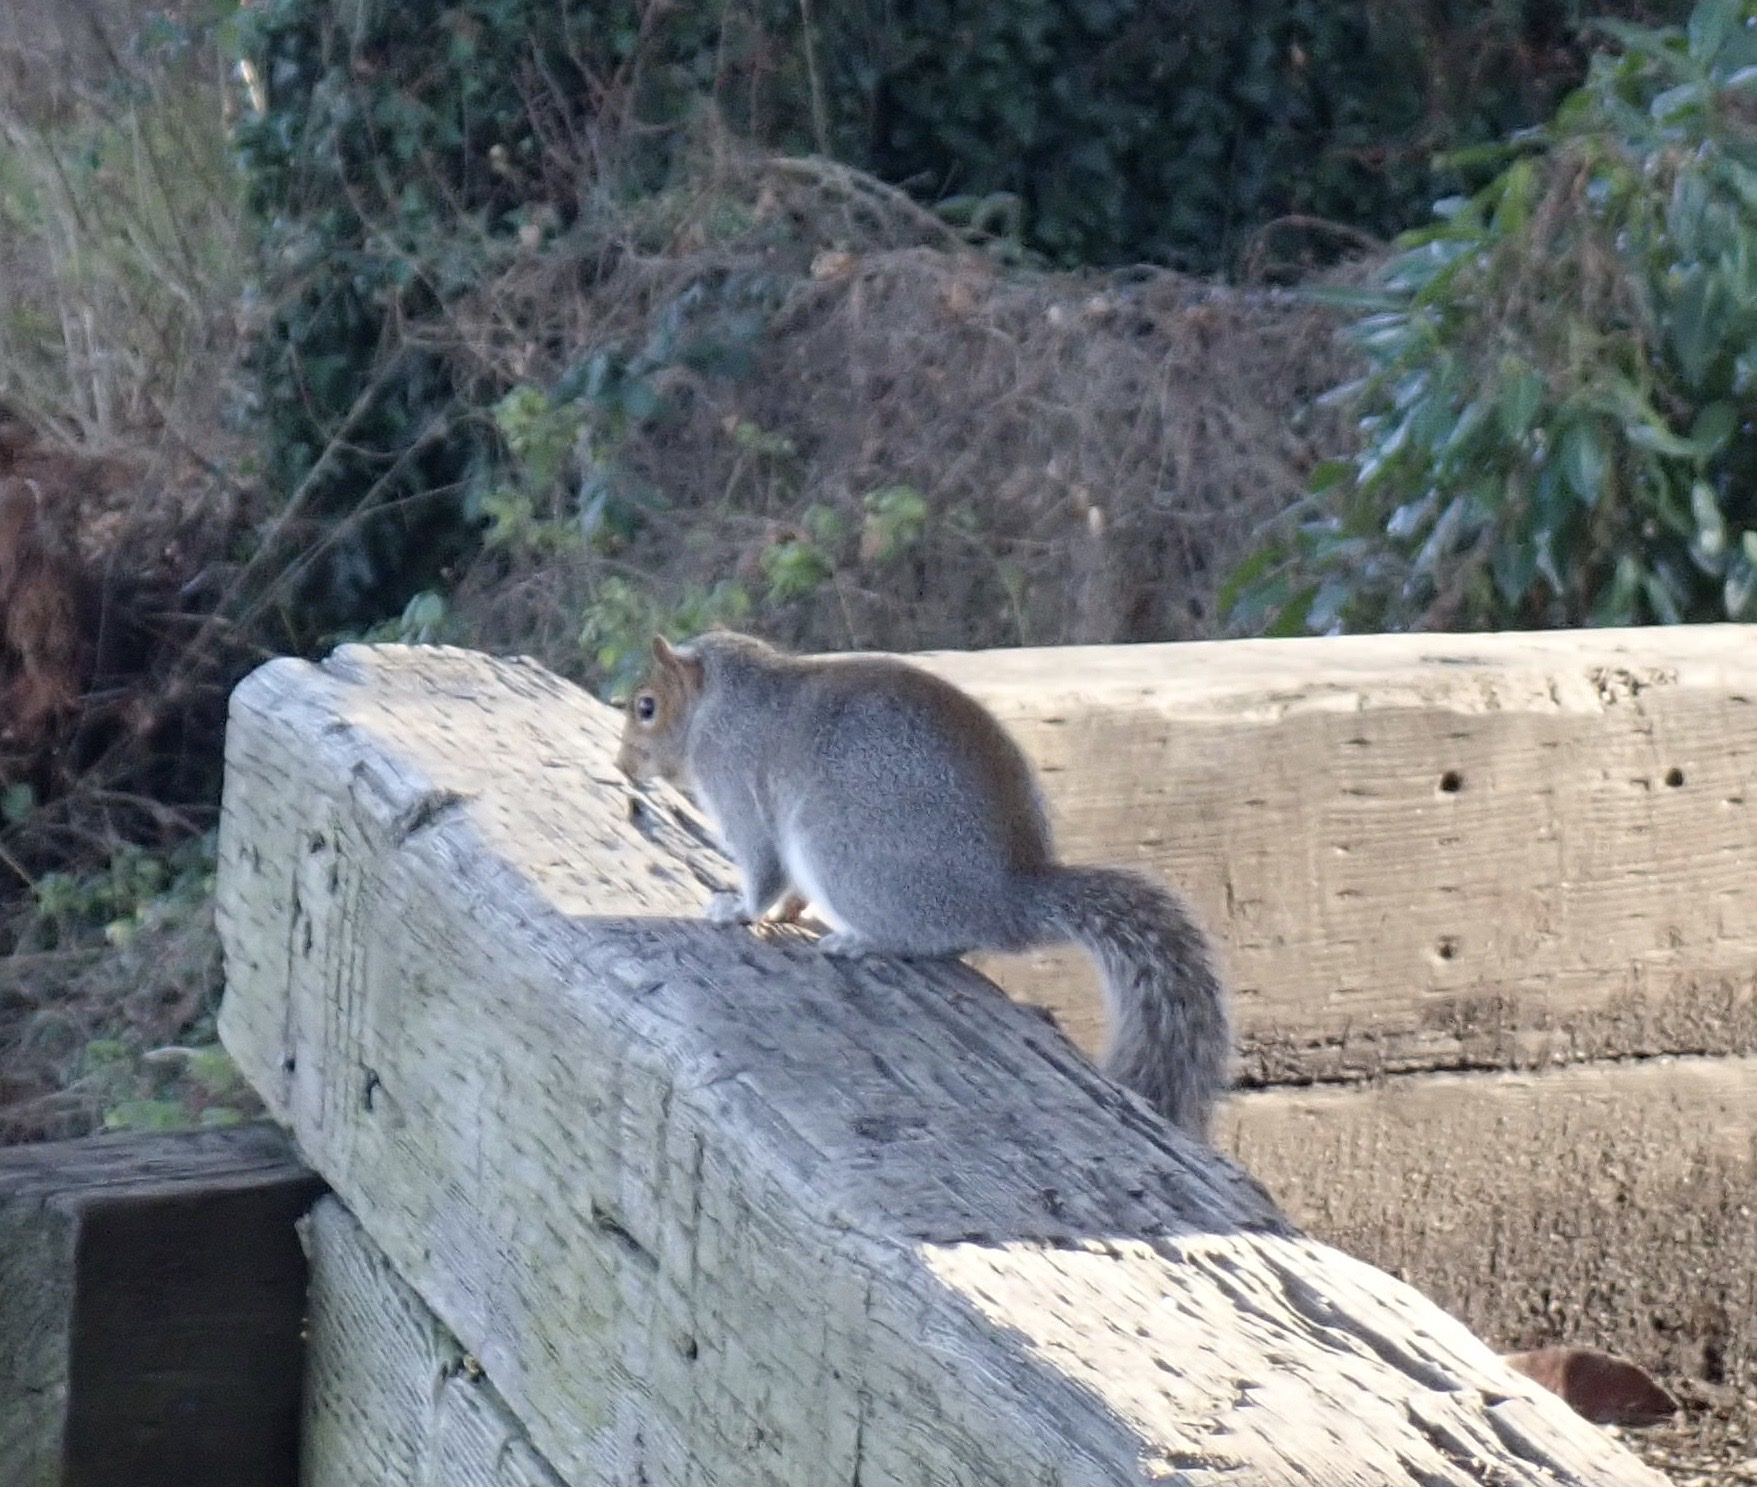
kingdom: Animalia
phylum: Chordata
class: Mammalia
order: Rodentia
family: Sciuridae
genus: Sciurus
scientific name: Sciurus carolinensis
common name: Eastern gray squirrel
